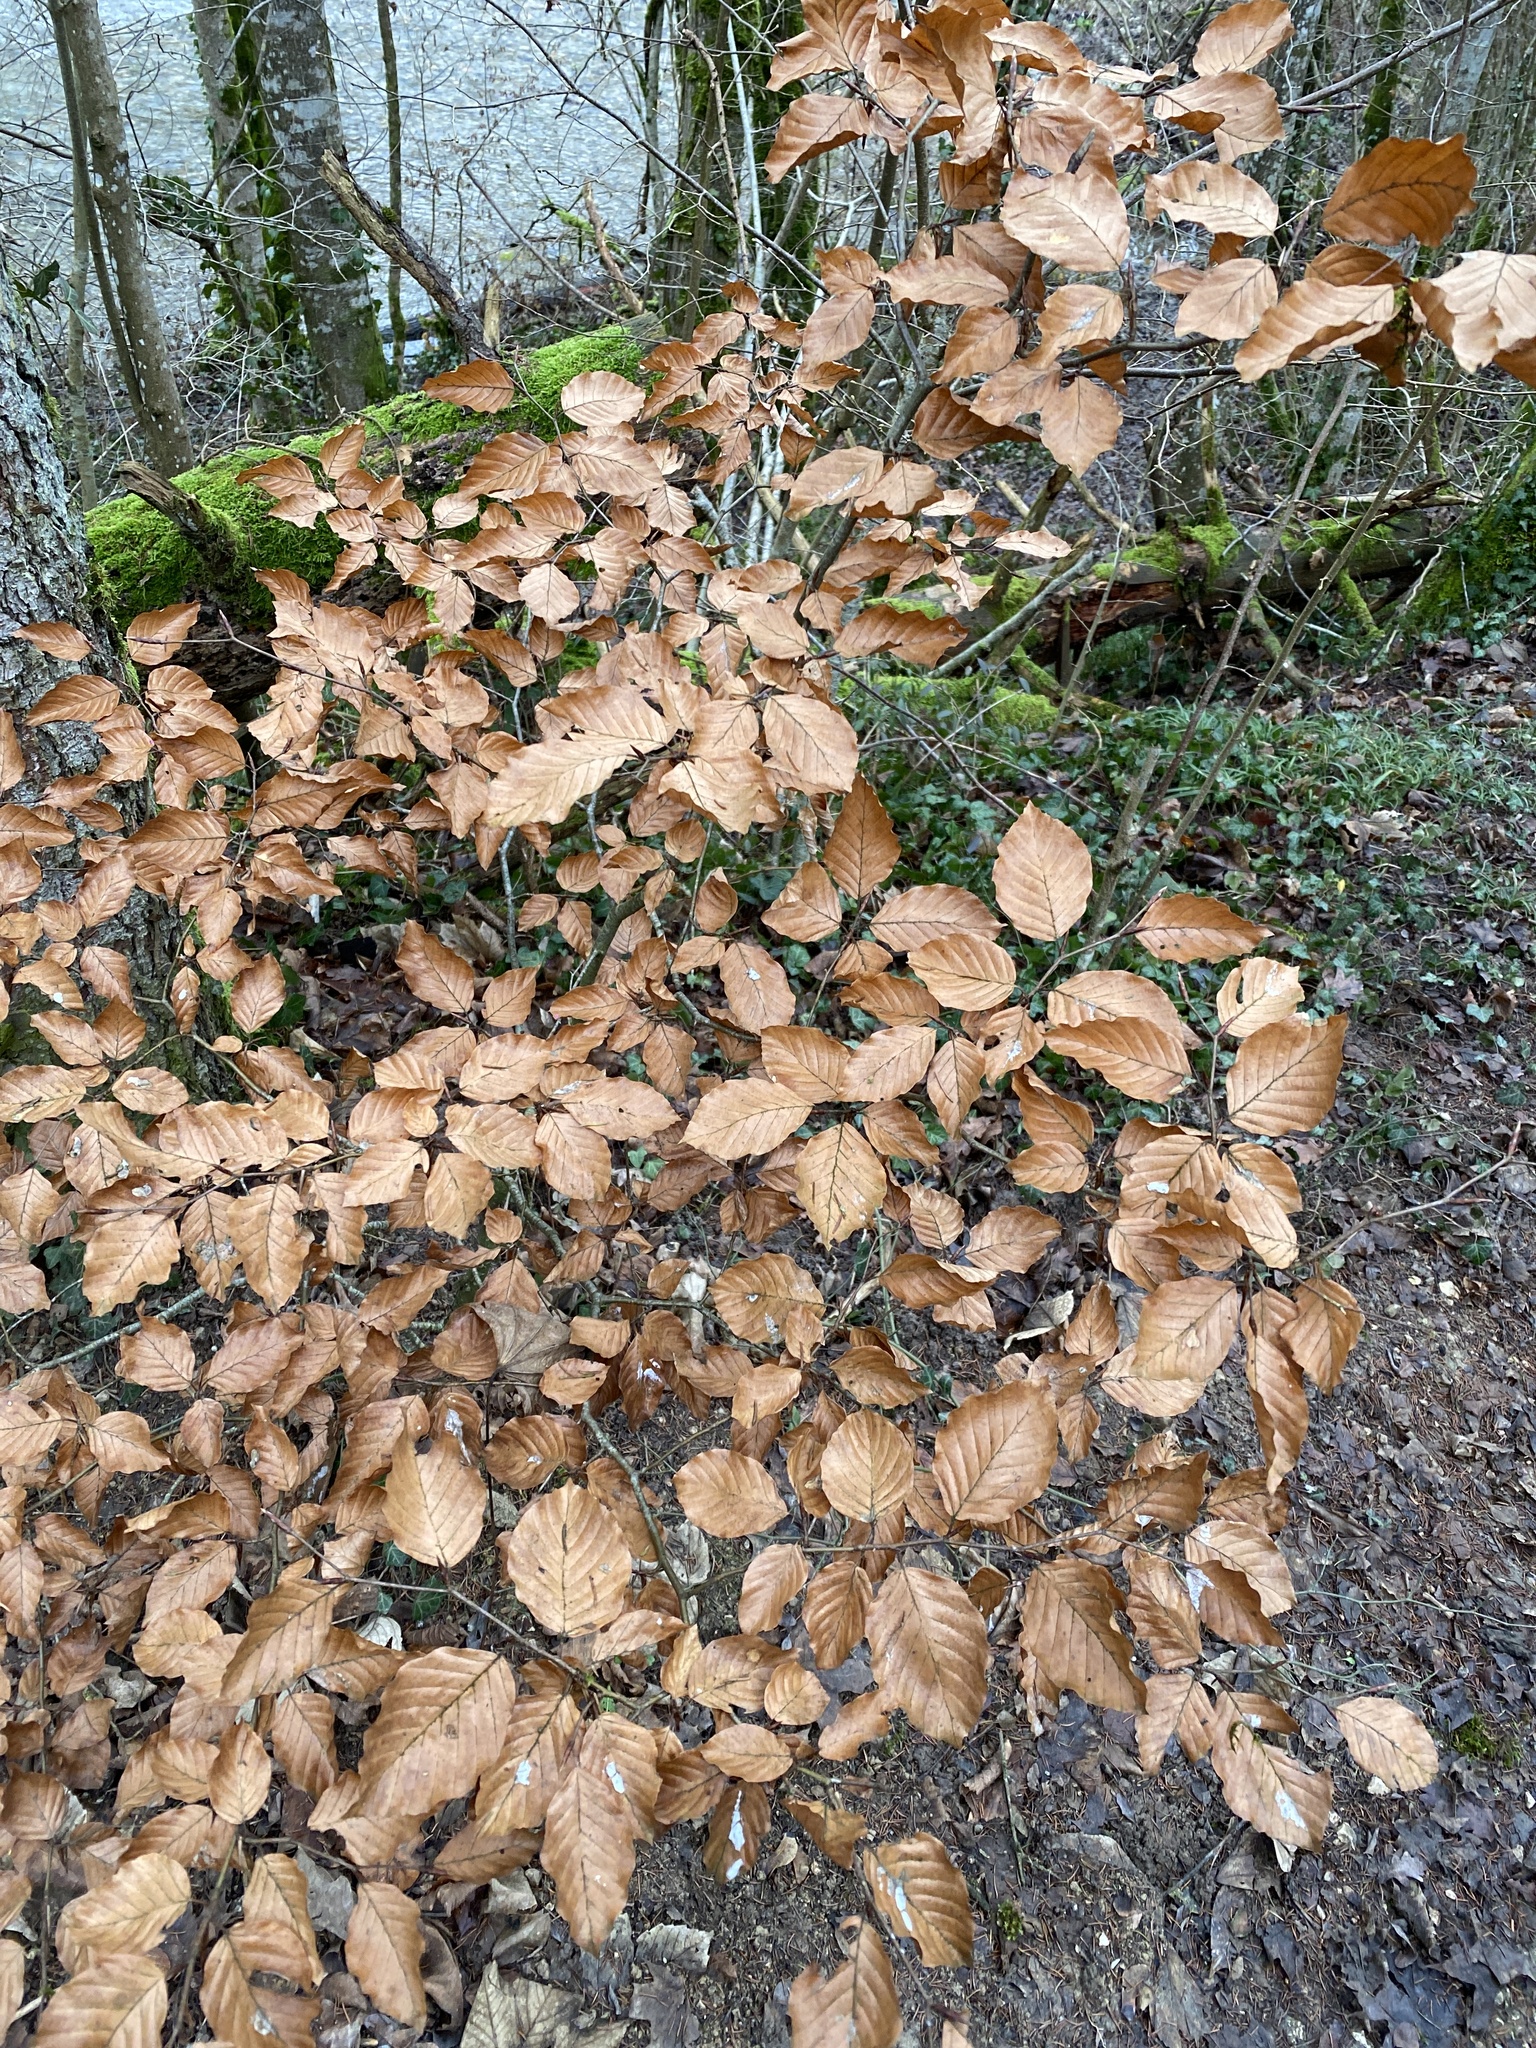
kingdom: Plantae
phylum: Tracheophyta
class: Magnoliopsida
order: Fagales
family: Fagaceae
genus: Fagus
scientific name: Fagus sylvatica
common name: Beech
